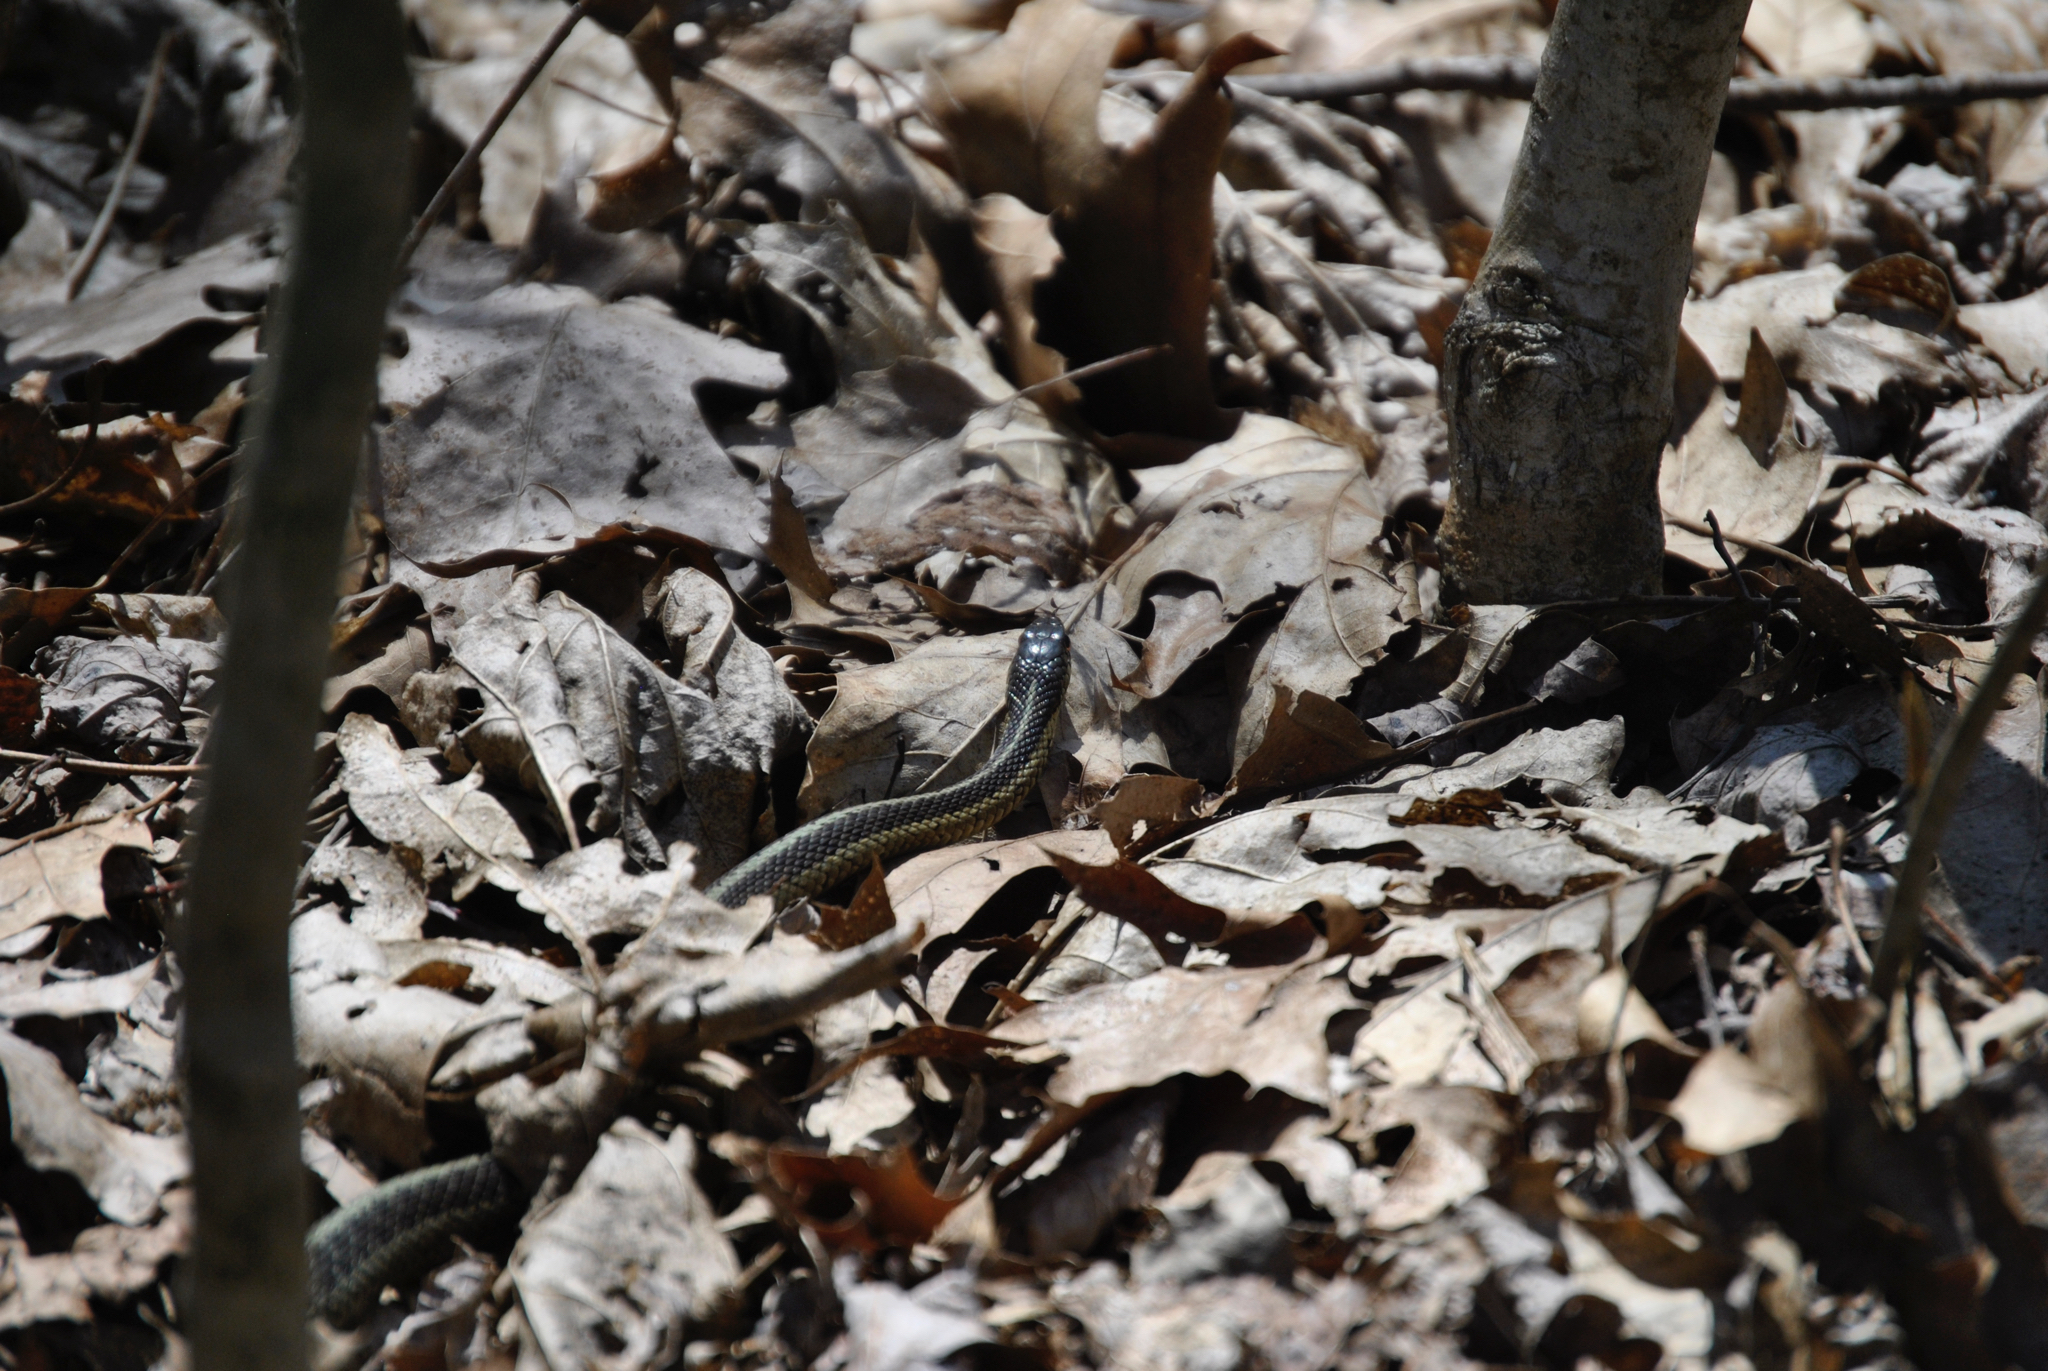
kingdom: Animalia
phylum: Chordata
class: Squamata
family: Colubridae
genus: Thamnophis
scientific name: Thamnophis sirtalis
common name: Common garter snake
